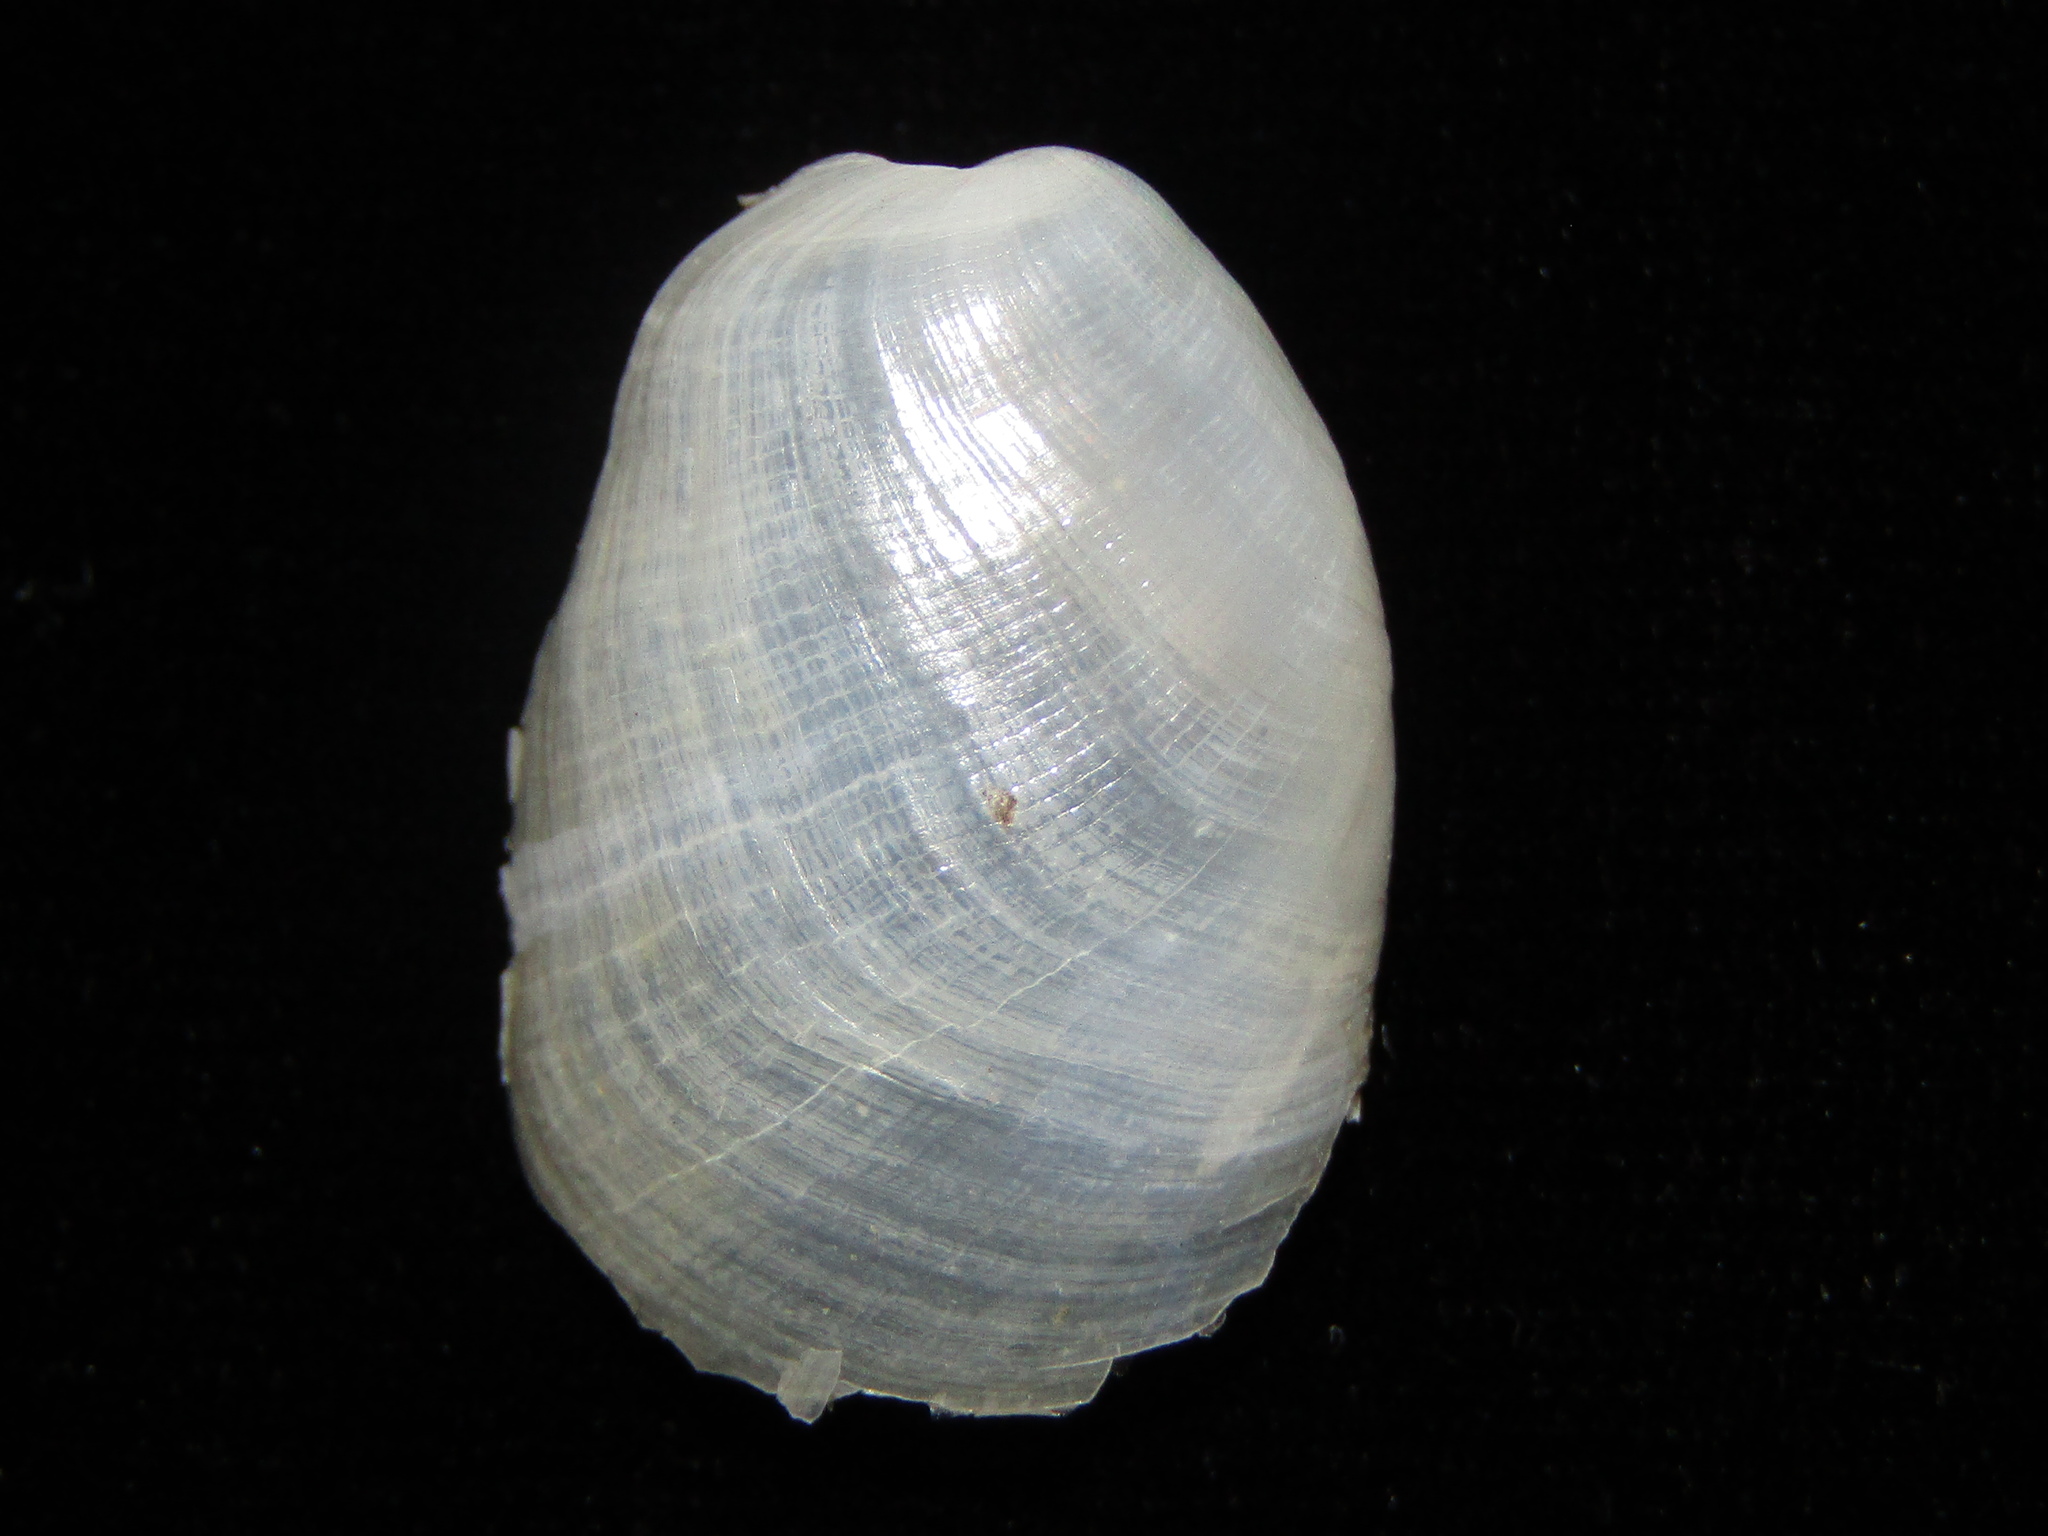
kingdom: Animalia
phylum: Mollusca
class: Gastropoda
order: Cephalaspidea
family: Philinidae
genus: Philine
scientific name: Philine auriformis
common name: Sea snail
